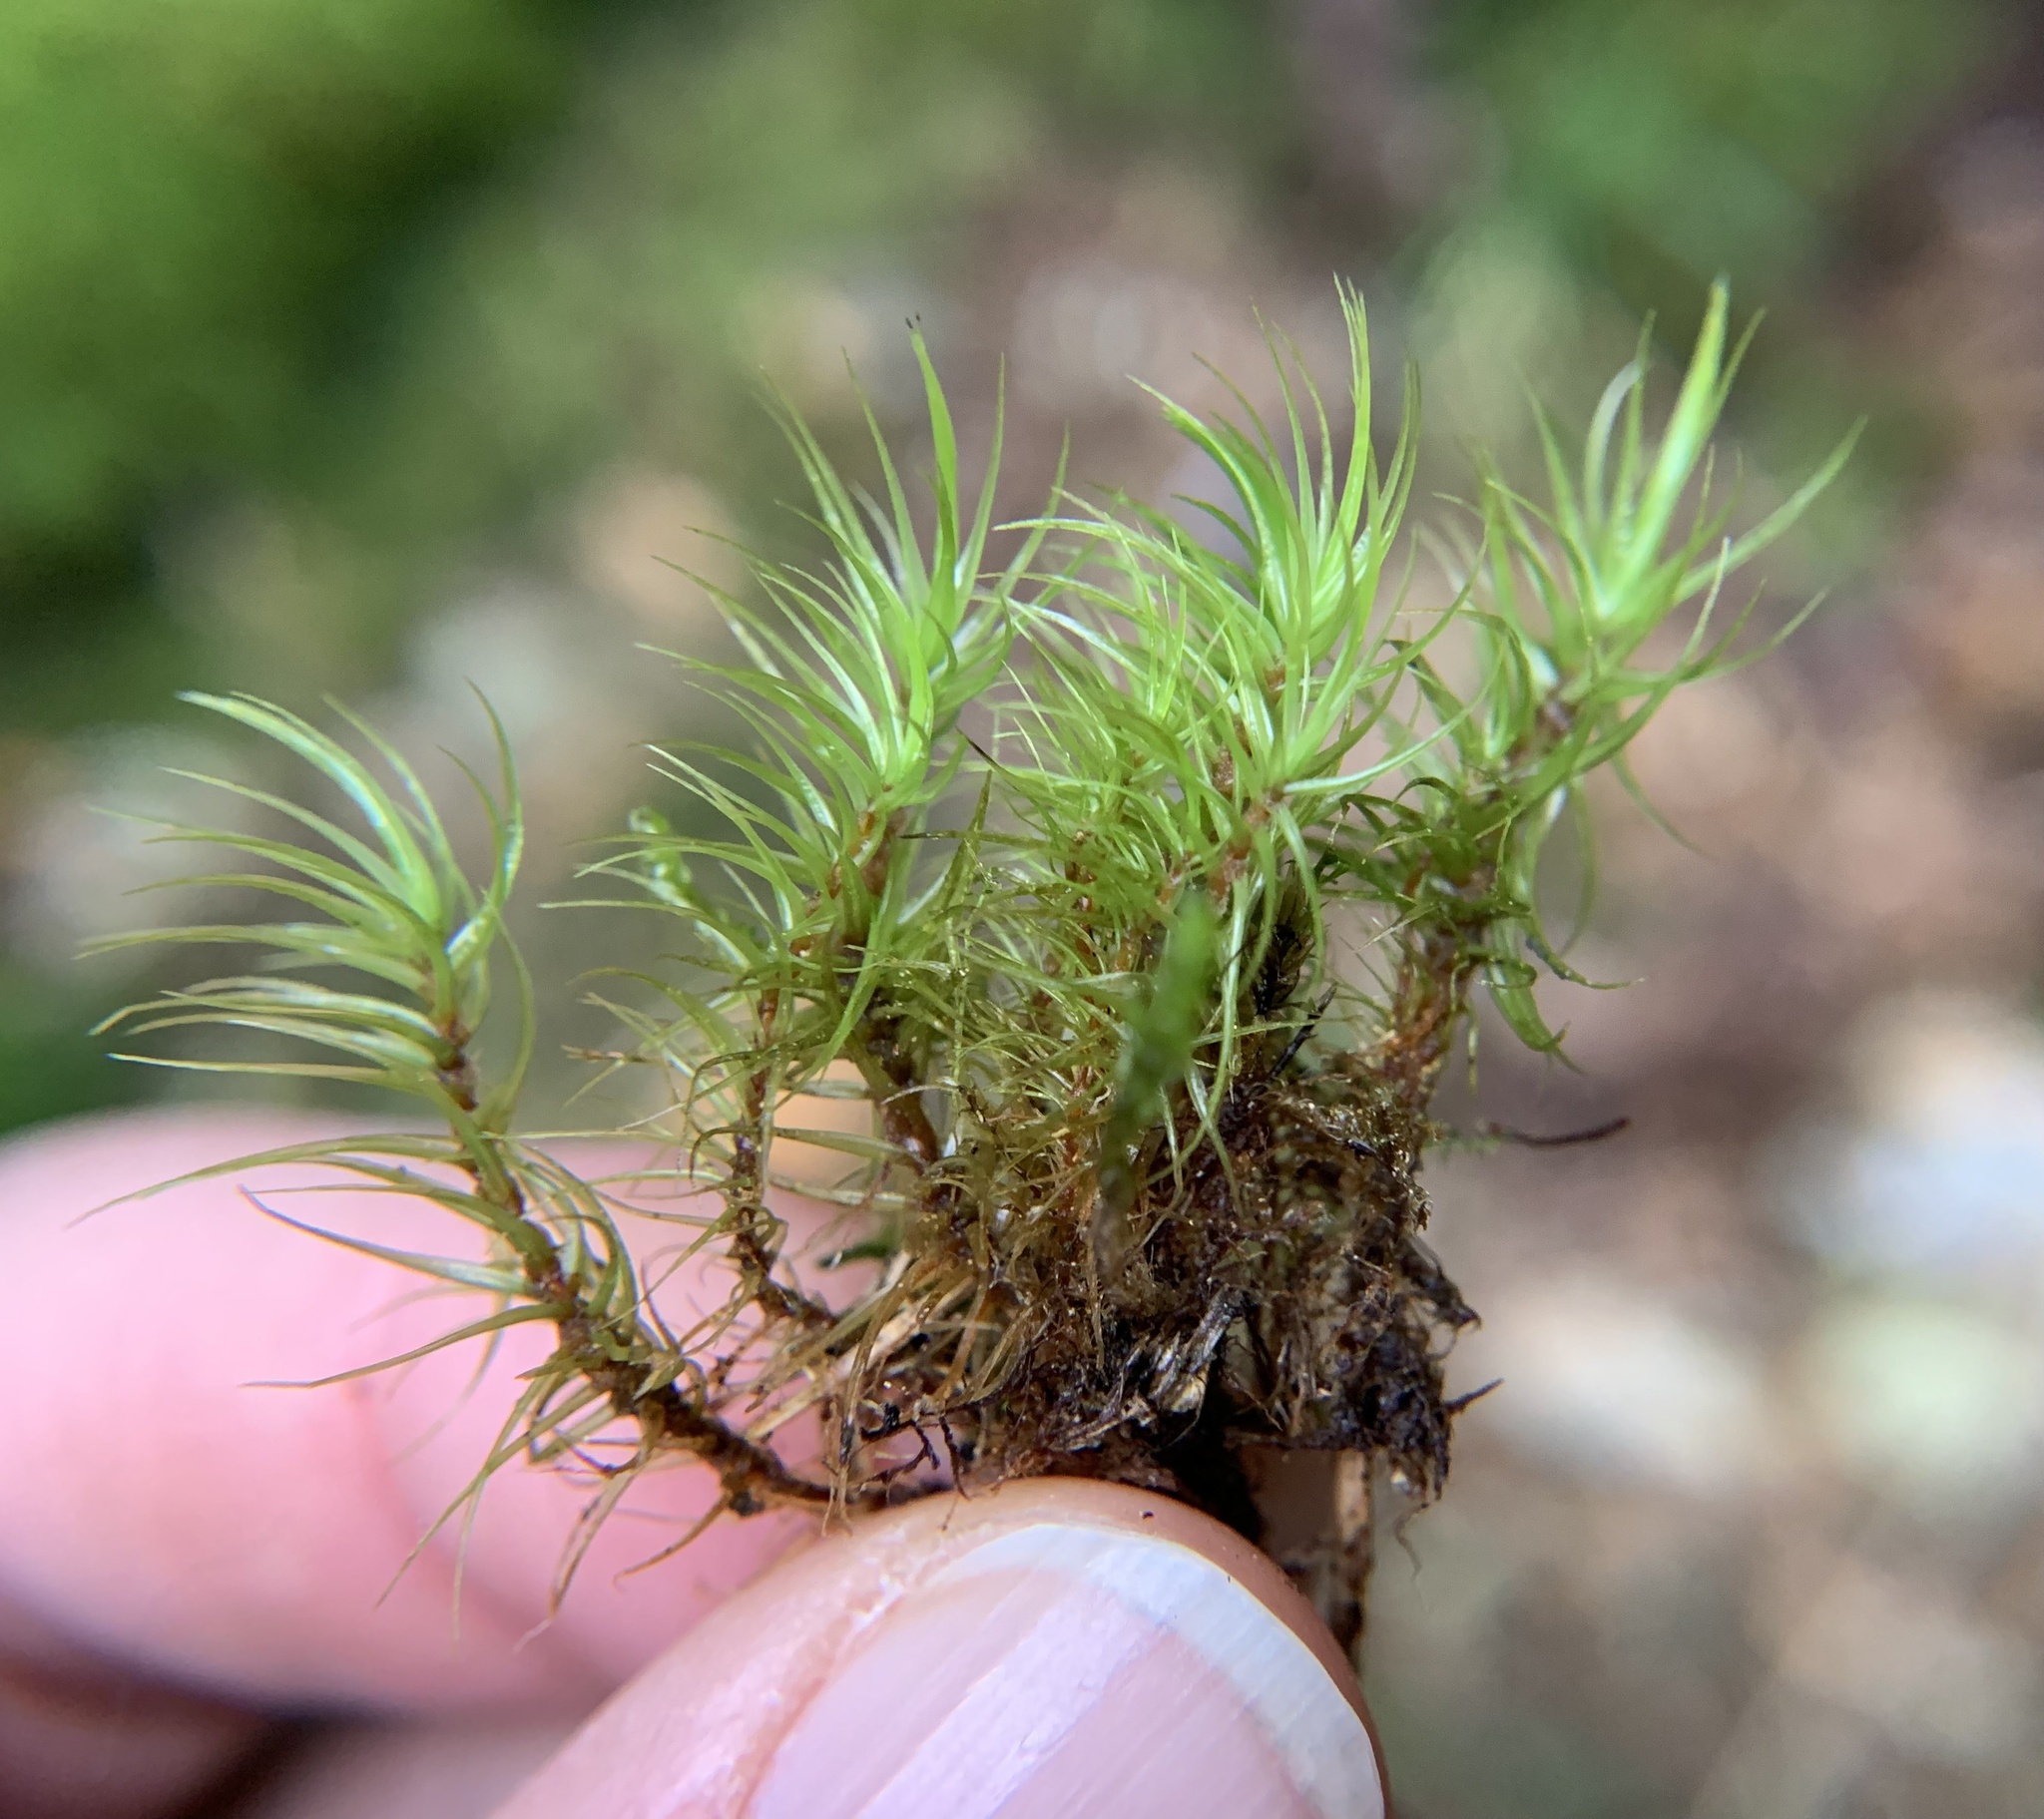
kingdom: Plantae
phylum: Bryophyta
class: Bryopsida
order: Dicranales
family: Dicranaceae
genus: Dicranum
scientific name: Dicranum scoparium
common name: Broom fork-moss
